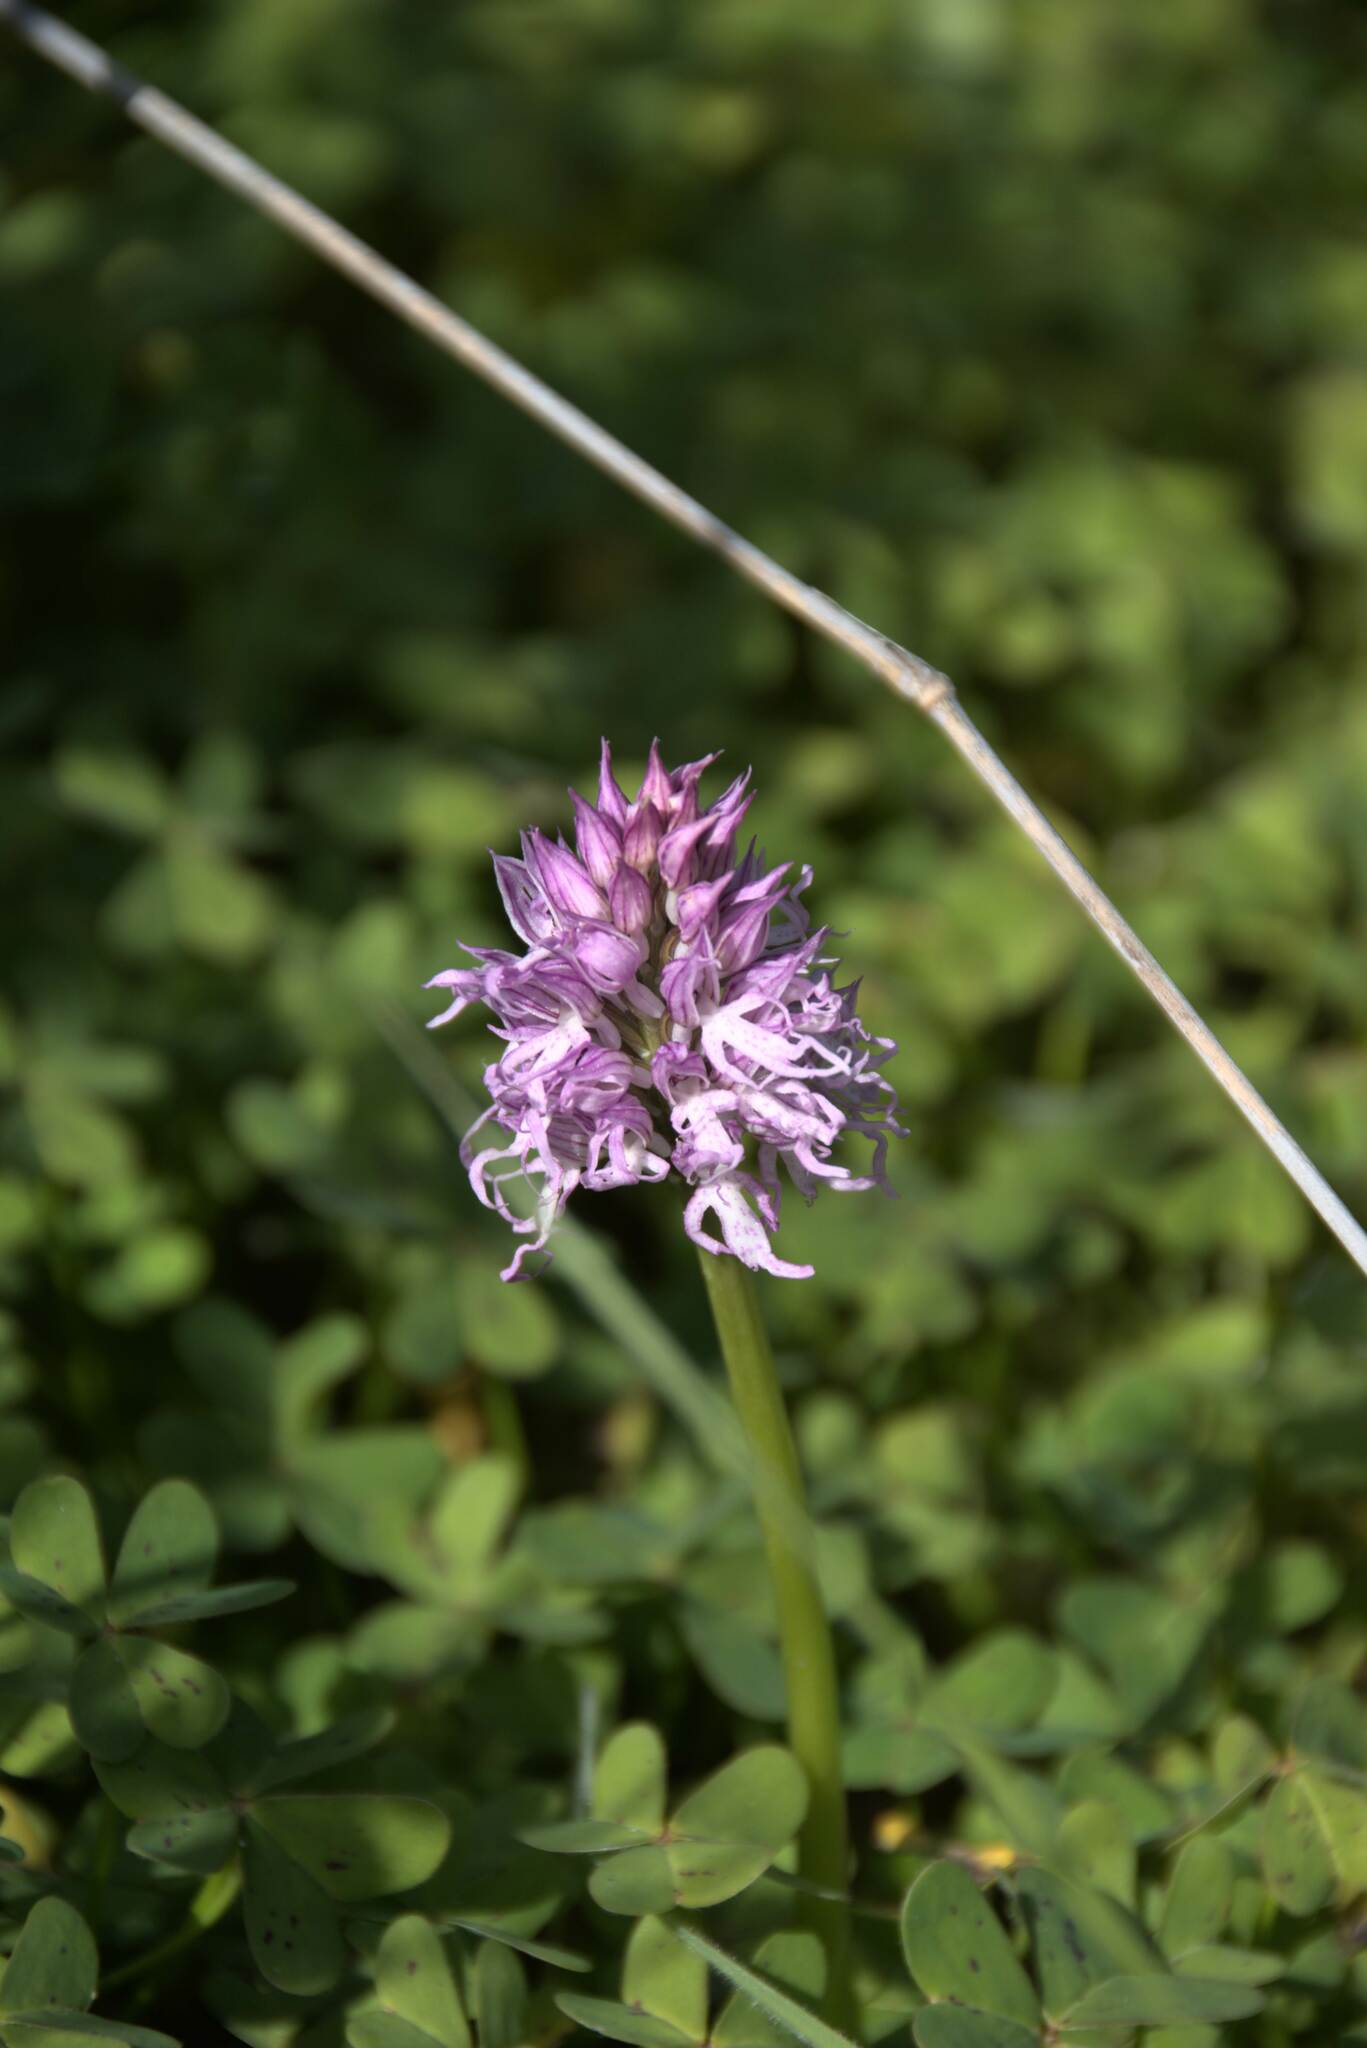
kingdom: Plantae
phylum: Tracheophyta
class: Liliopsida
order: Asparagales
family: Orchidaceae
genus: Orchis
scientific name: Orchis italica
